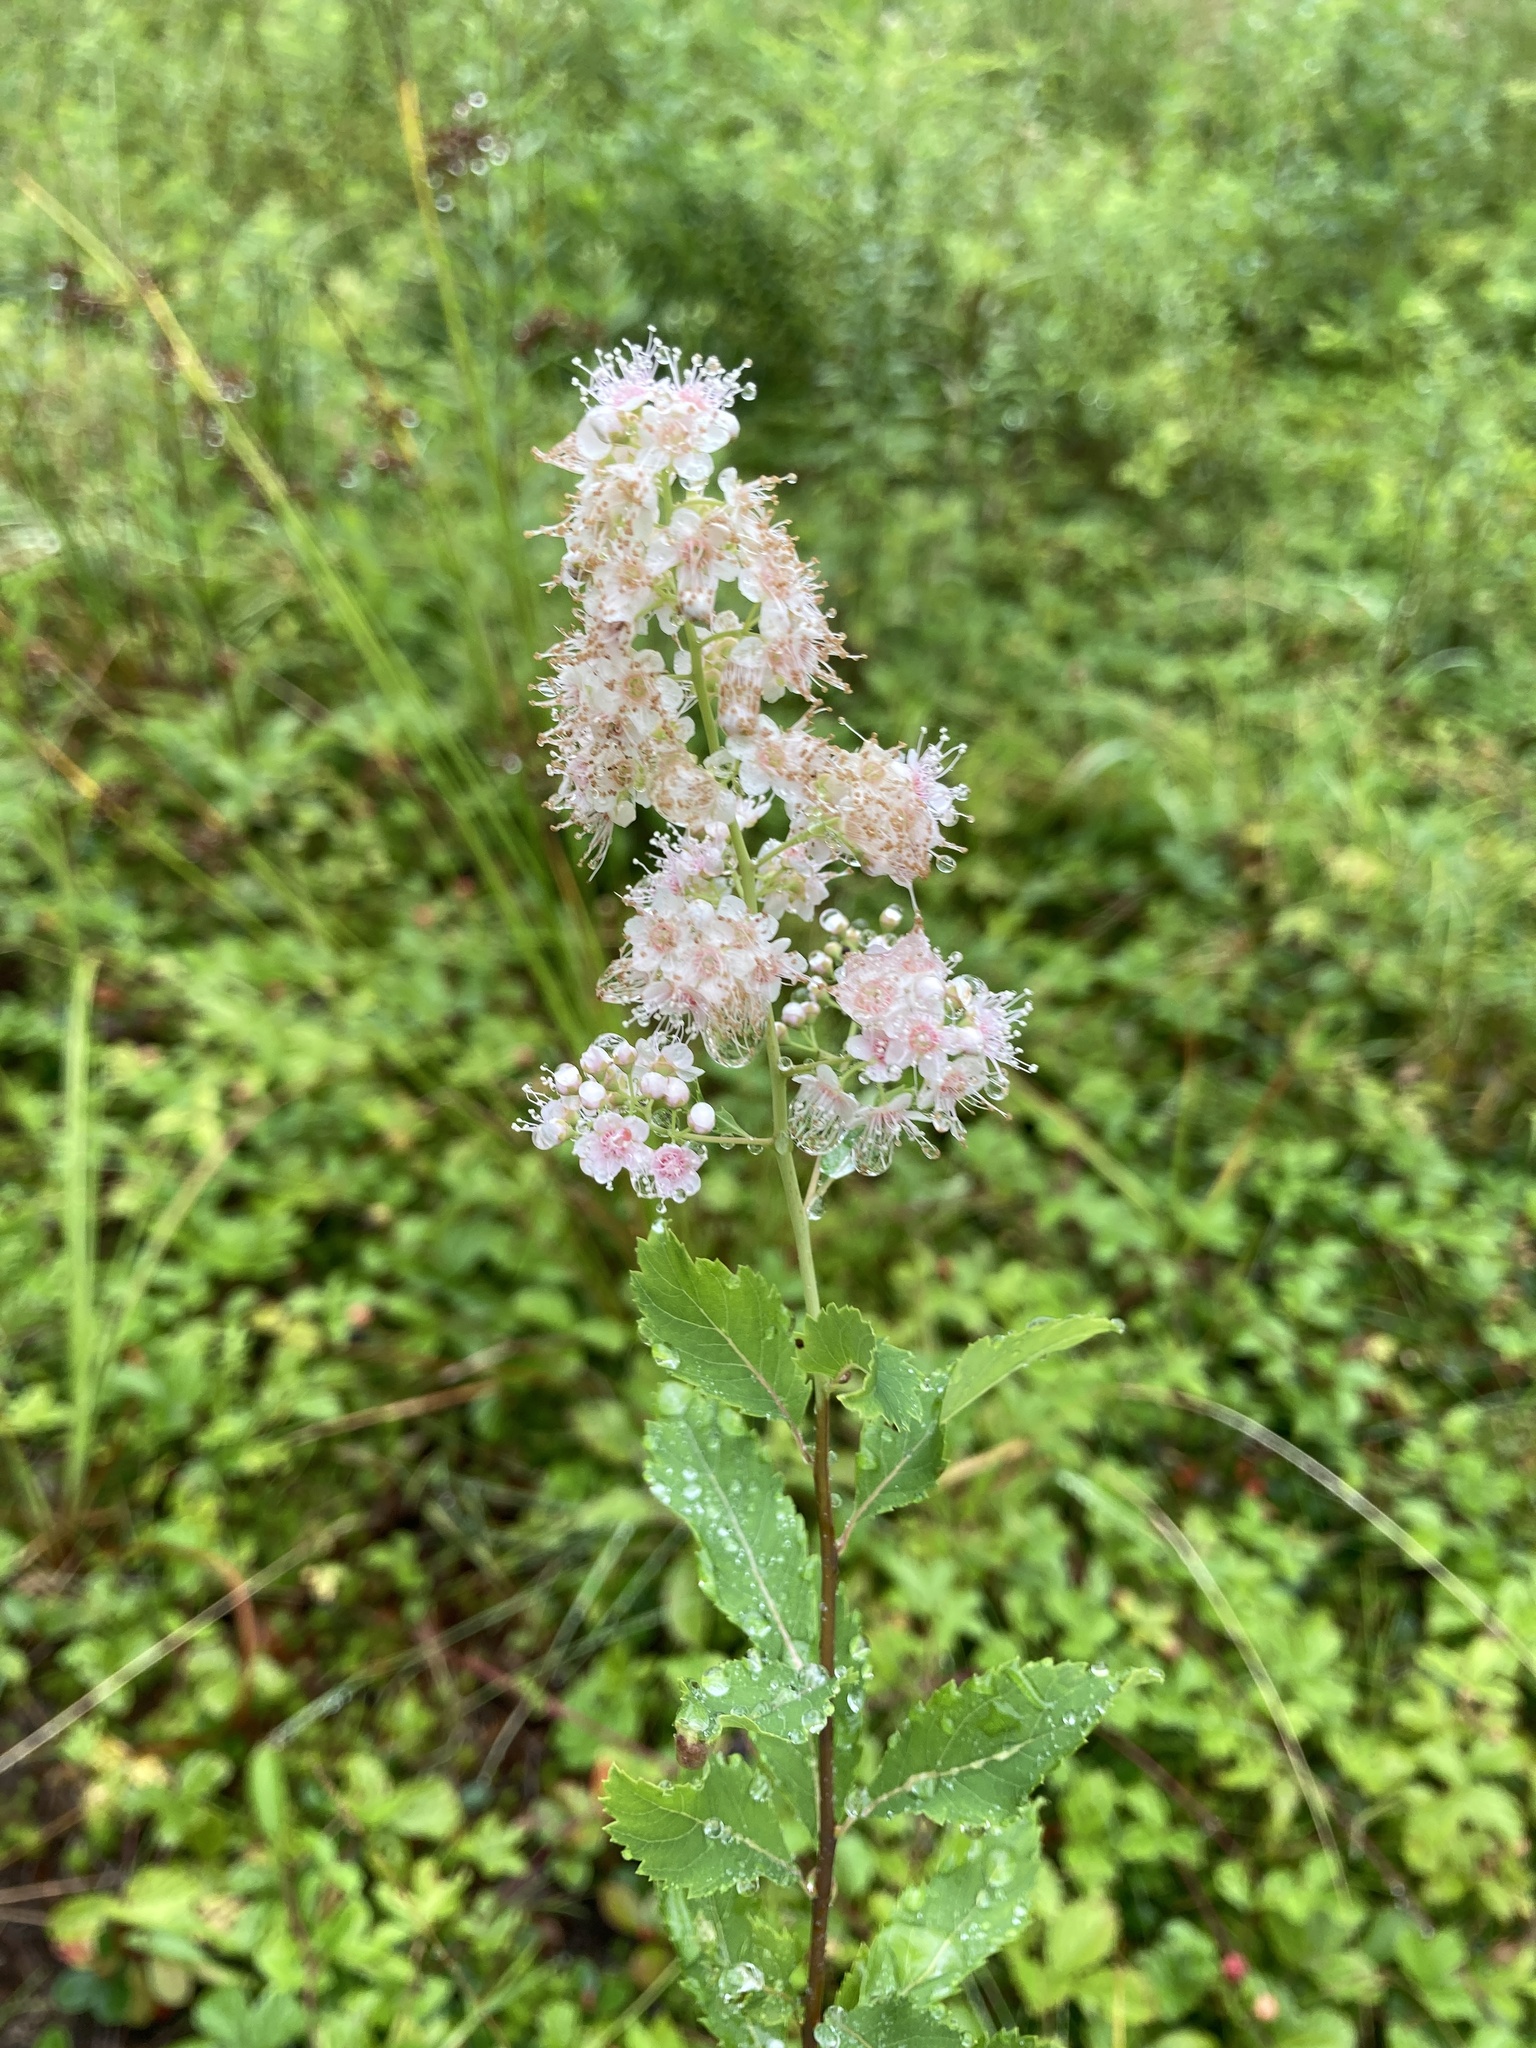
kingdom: Plantae
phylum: Tracheophyta
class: Magnoliopsida
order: Rosales
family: Rosaceae
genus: Spiraea
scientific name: Spiraea alba
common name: Pale bridewort
